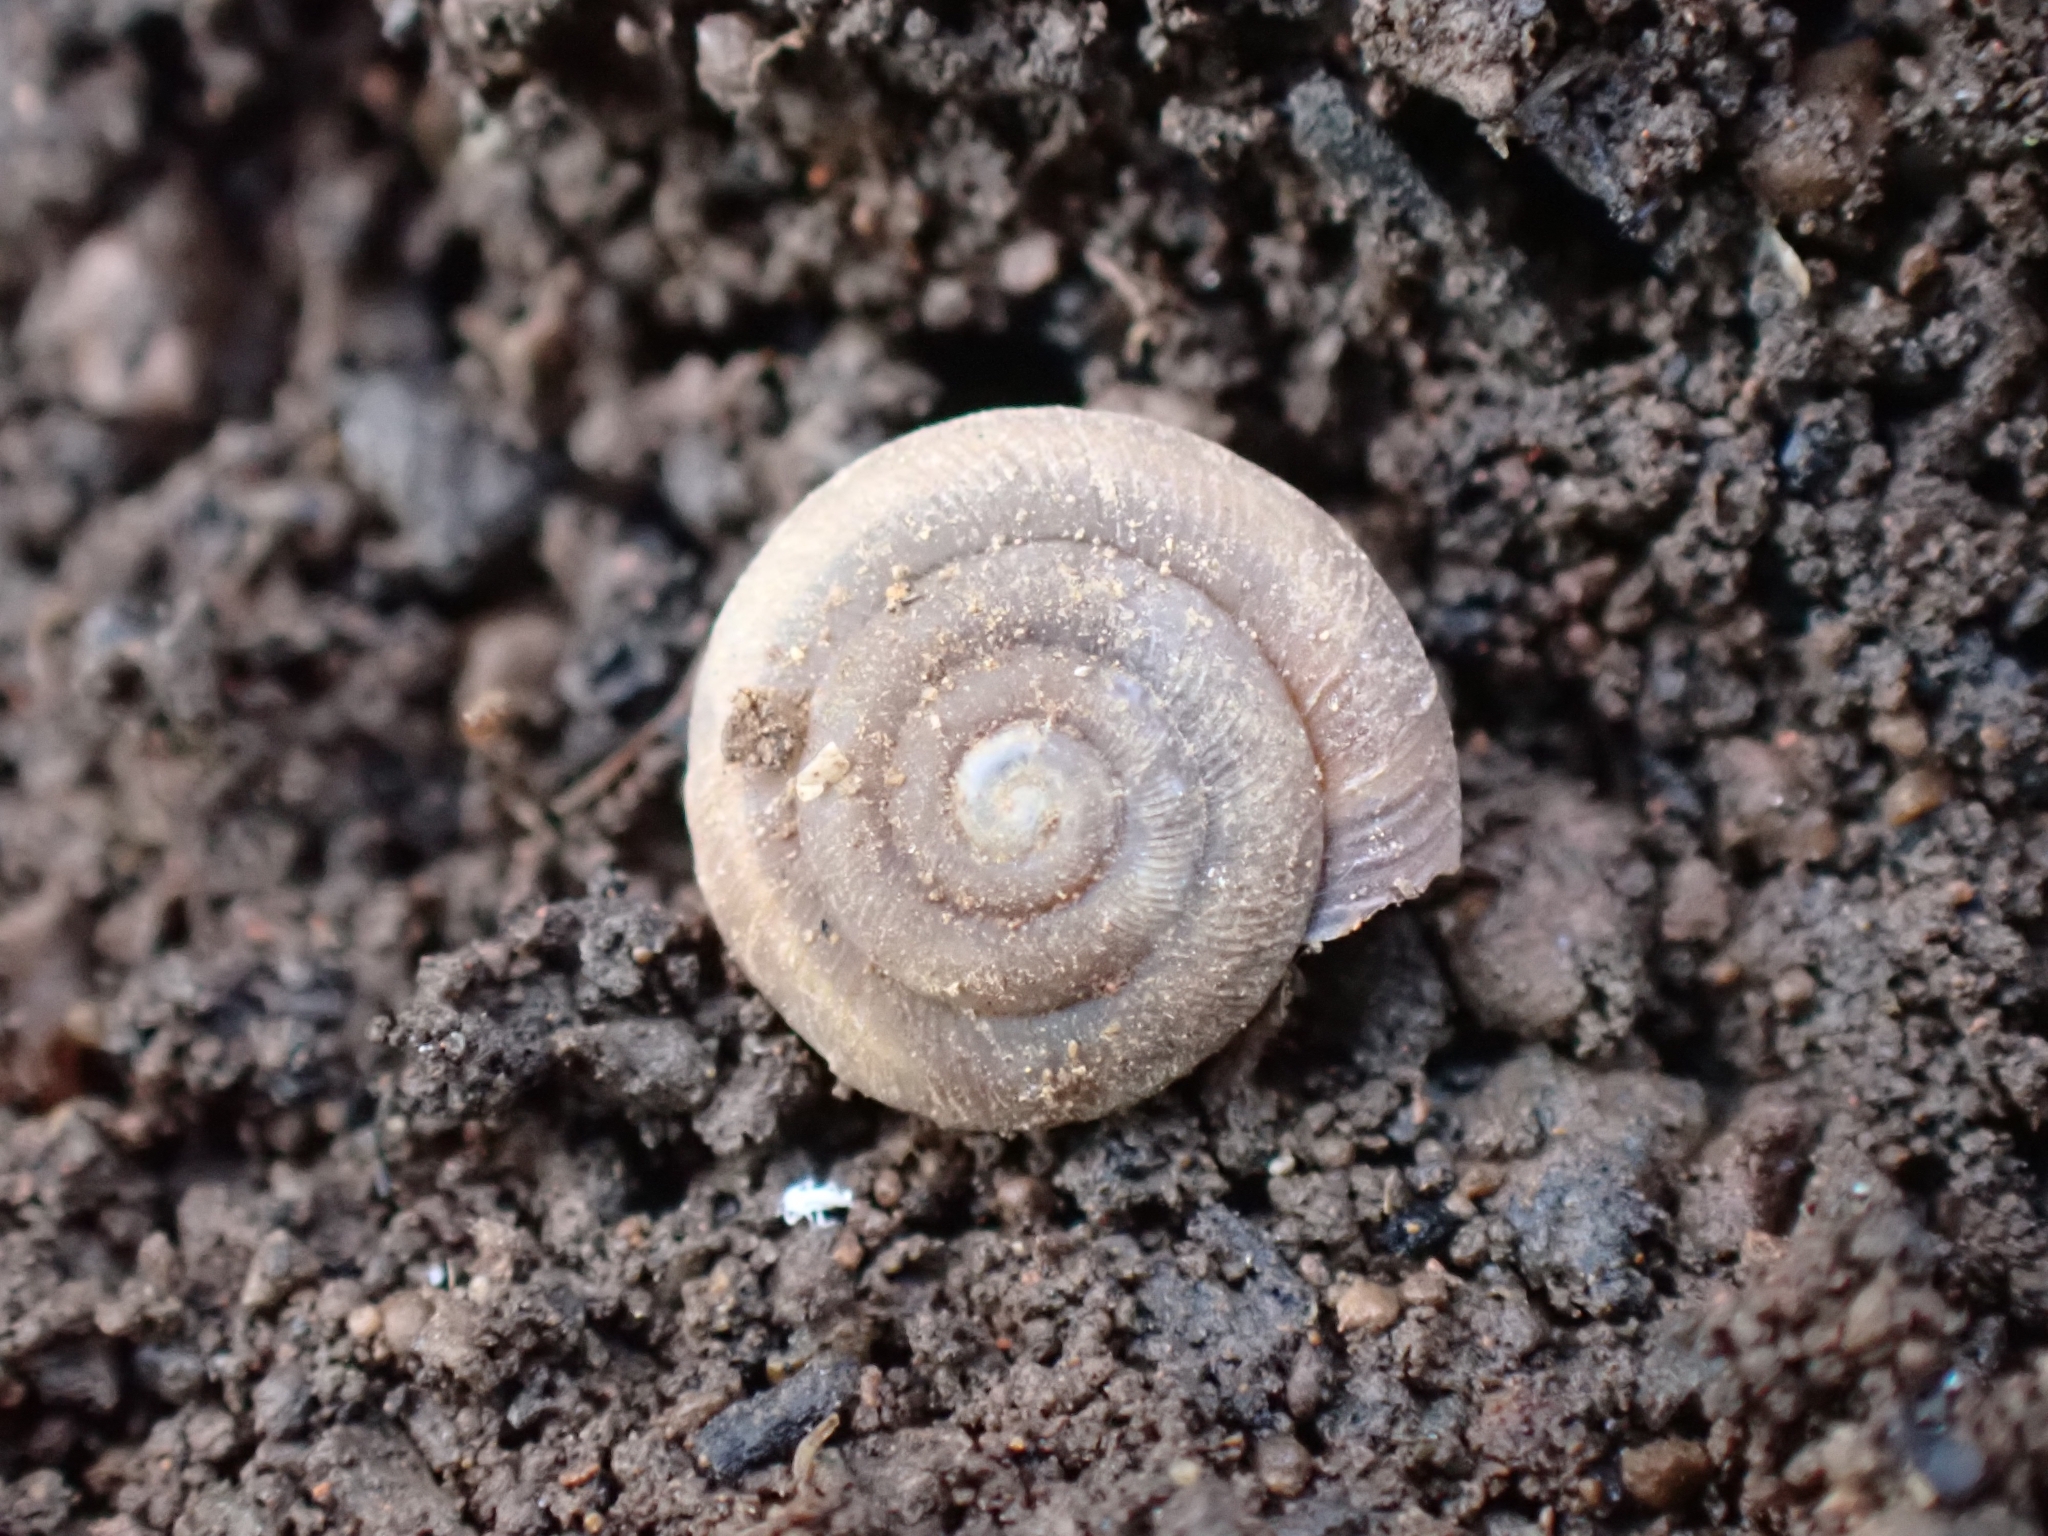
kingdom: Animalia
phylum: Mollusca
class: Gastropoda
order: Stylommatophora
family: Trissexodontidae
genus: Caracollina
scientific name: Caracollina lenticula
